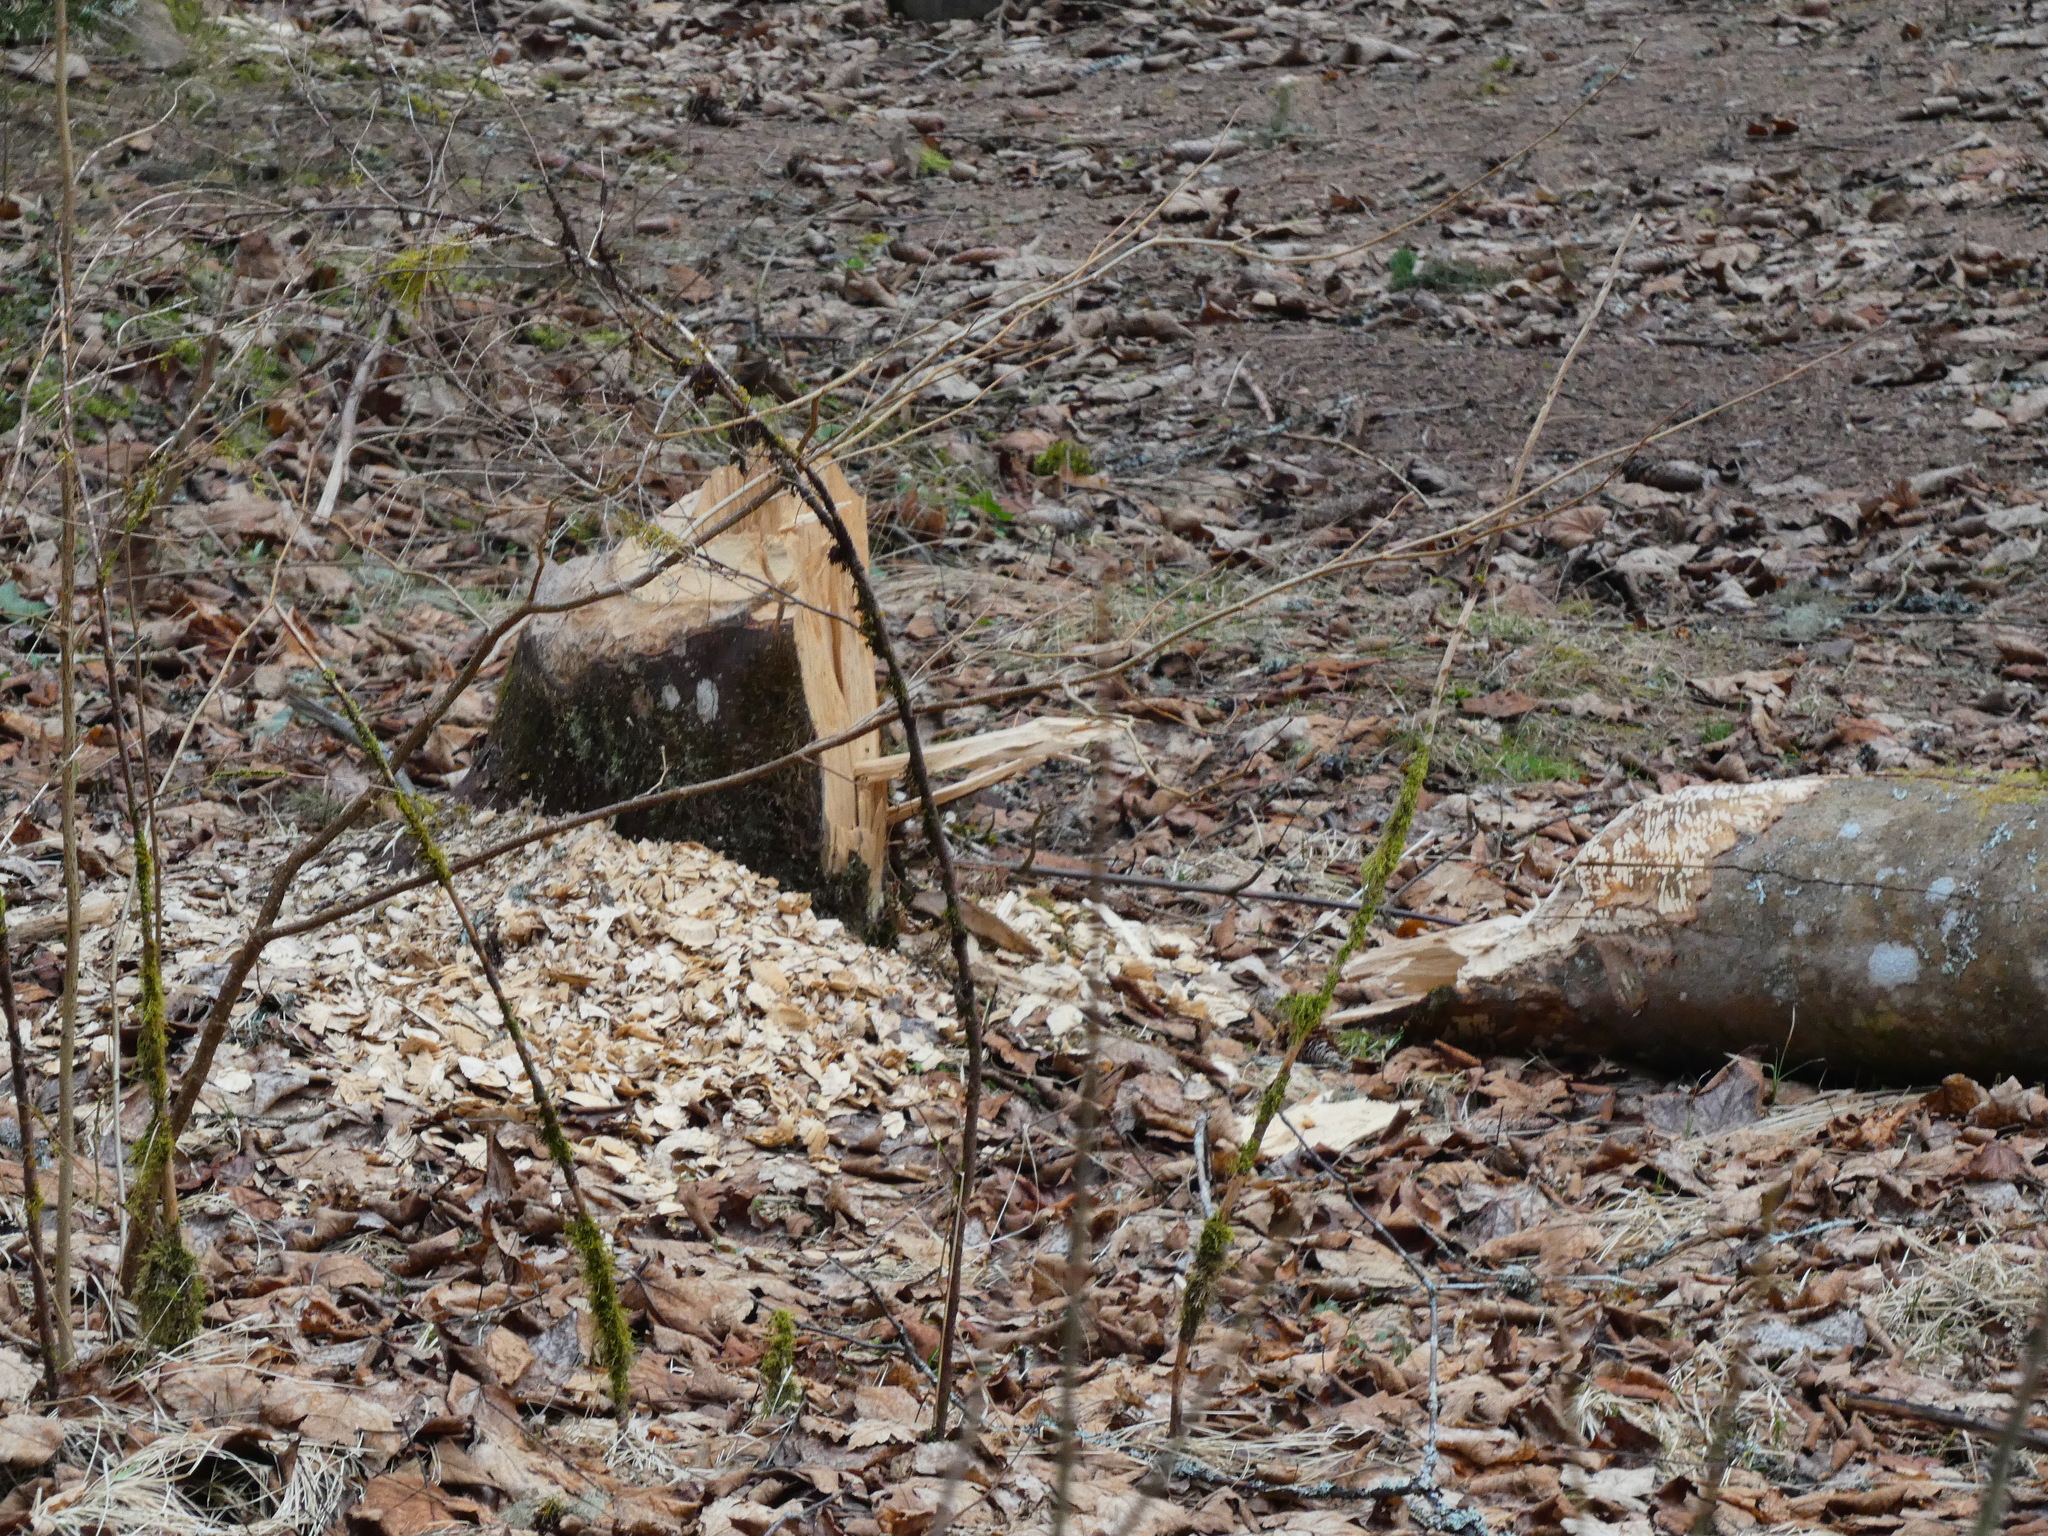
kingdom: Animalia
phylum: Chordata
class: Mammalia
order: Rodentia
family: Castoridae
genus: Castor
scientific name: Castor fiber
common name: Eurasian beaver
